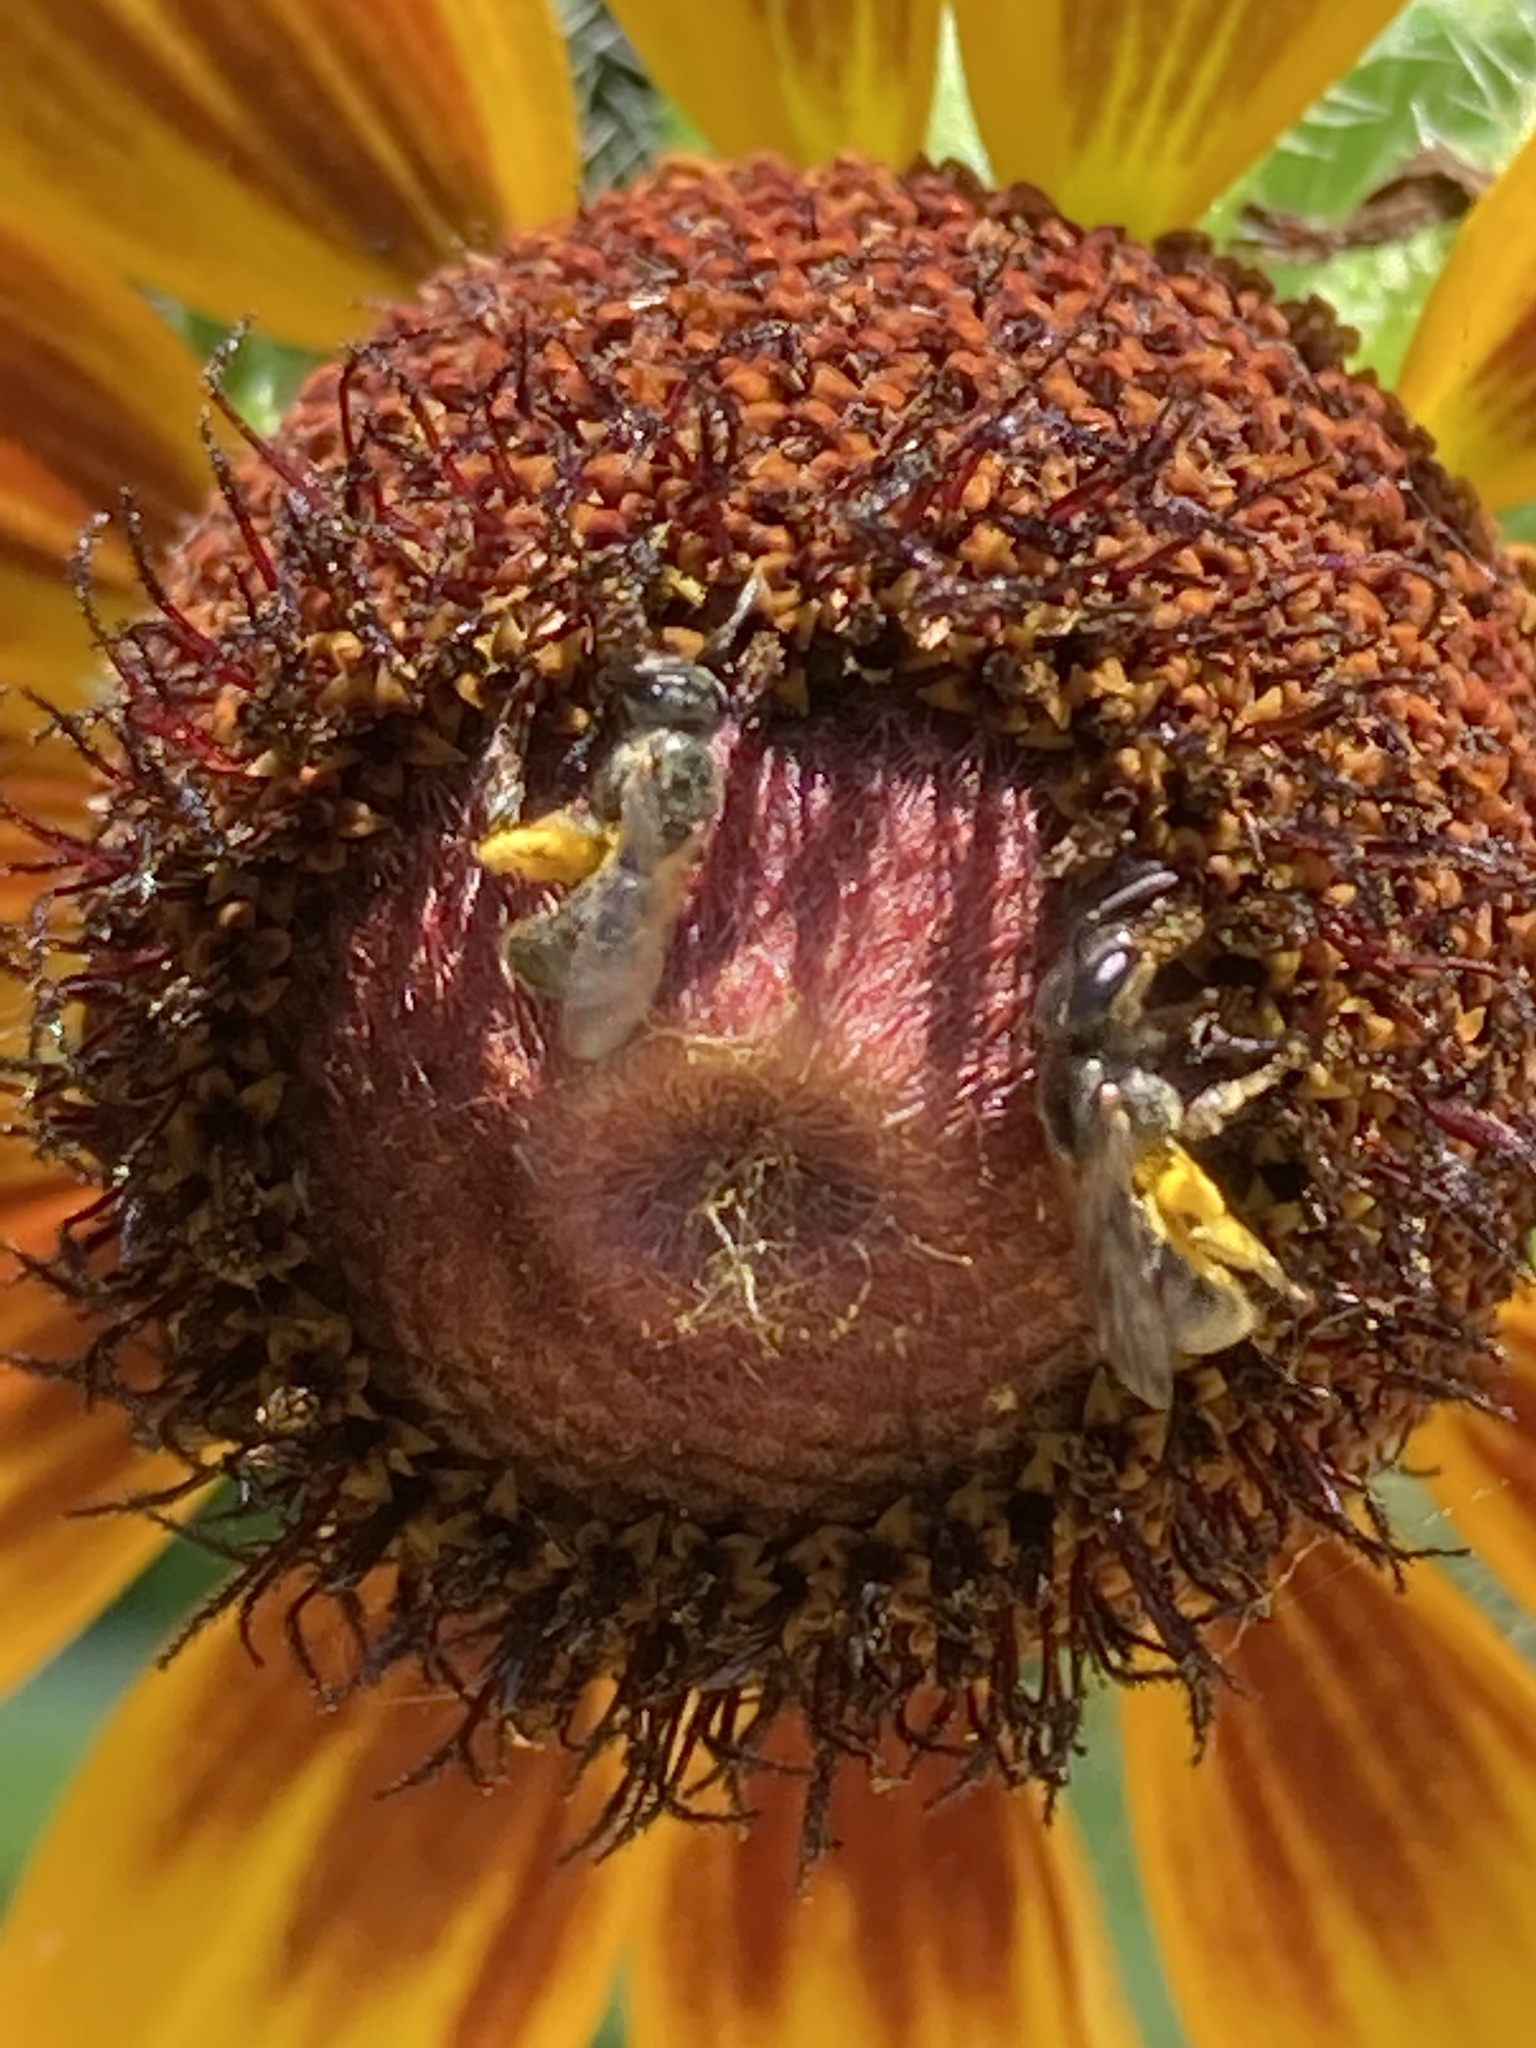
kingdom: Animalia
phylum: Arthropoda
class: Insecta
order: Hymenoptera
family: Halictidae
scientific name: Halictidae
